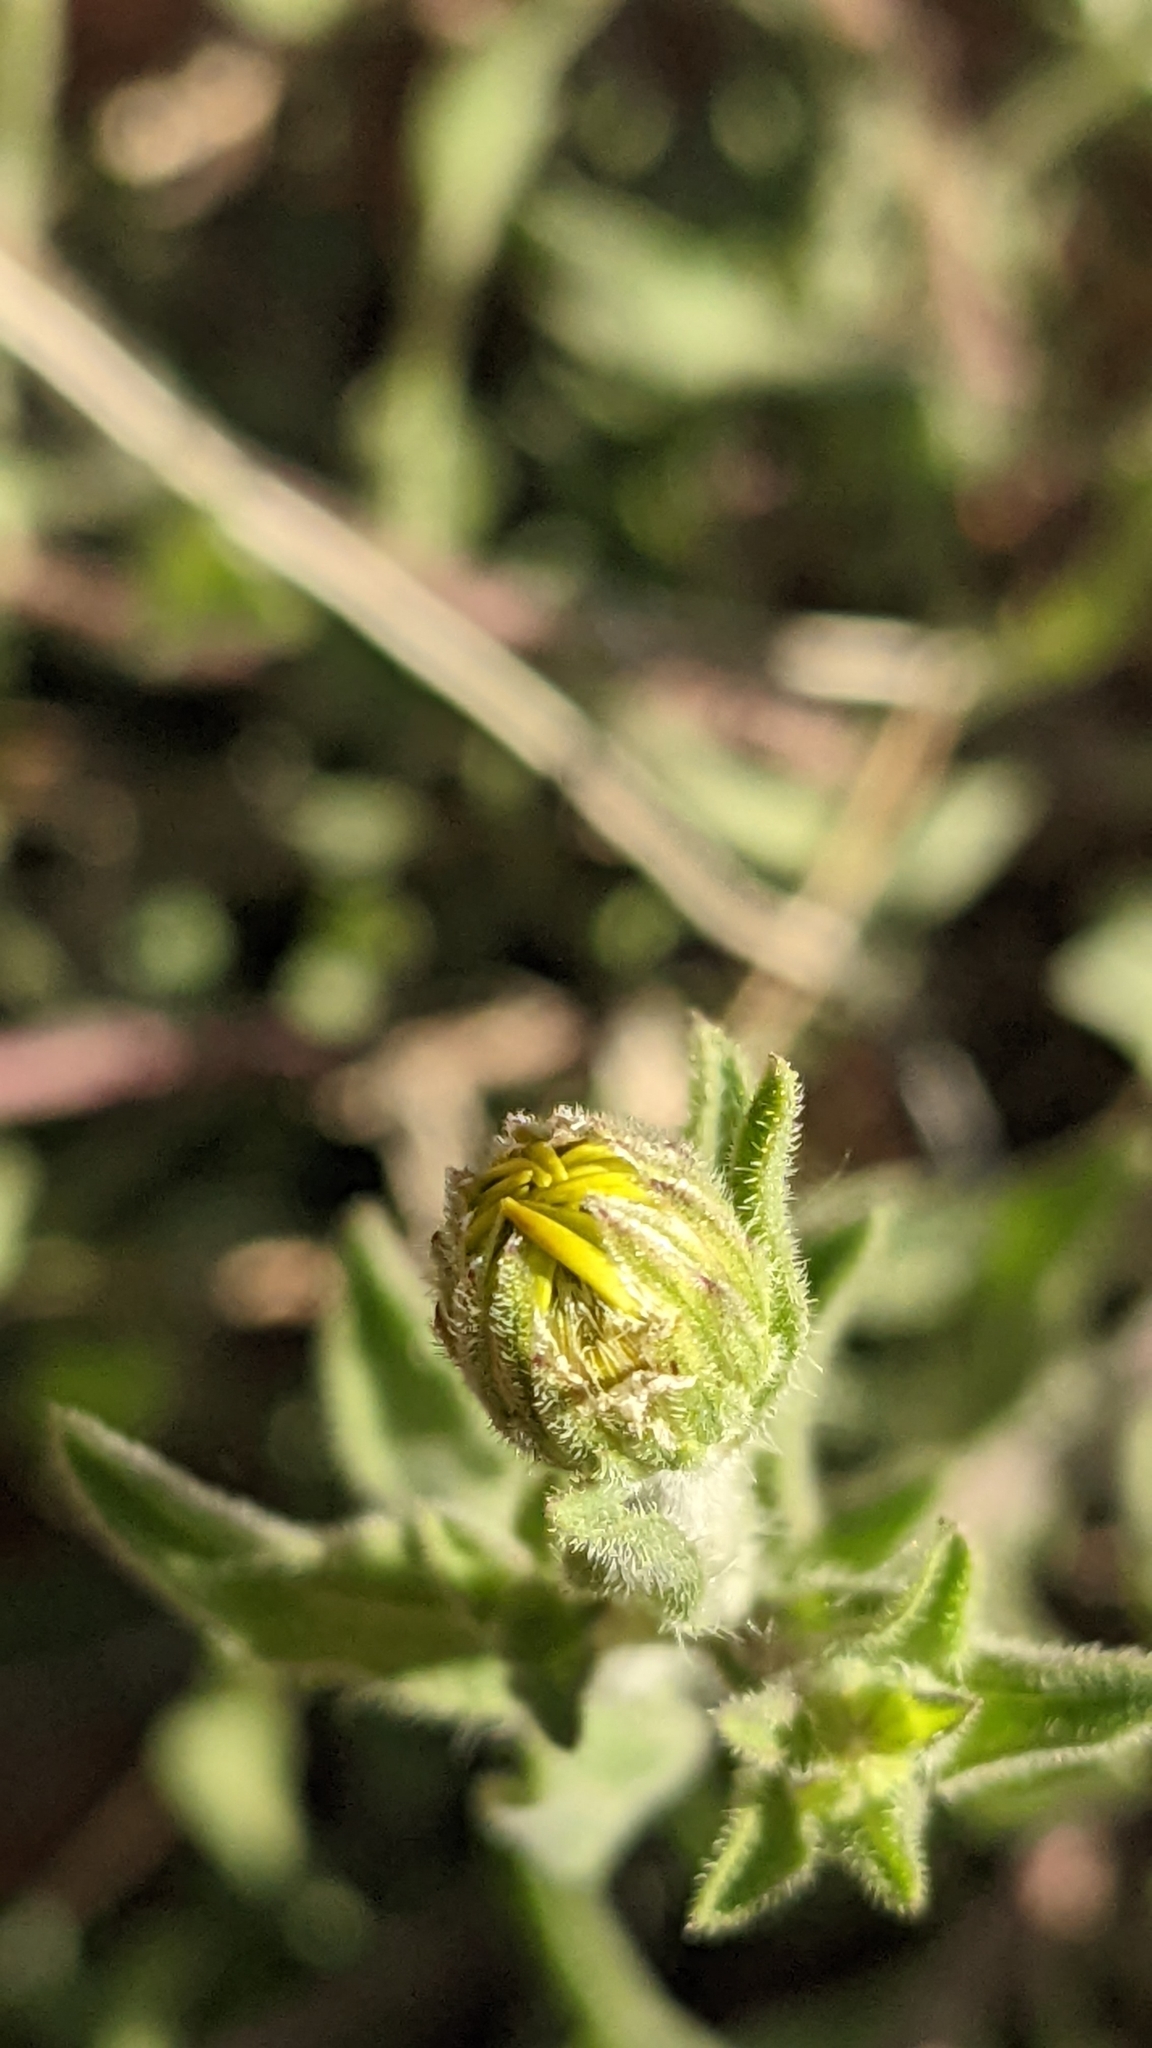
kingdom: Plantae
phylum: Tracheophyta
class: Magnoliopsida
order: Asterales
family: Asteraceae
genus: Heterotheca
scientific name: Heterotheca polothrix
